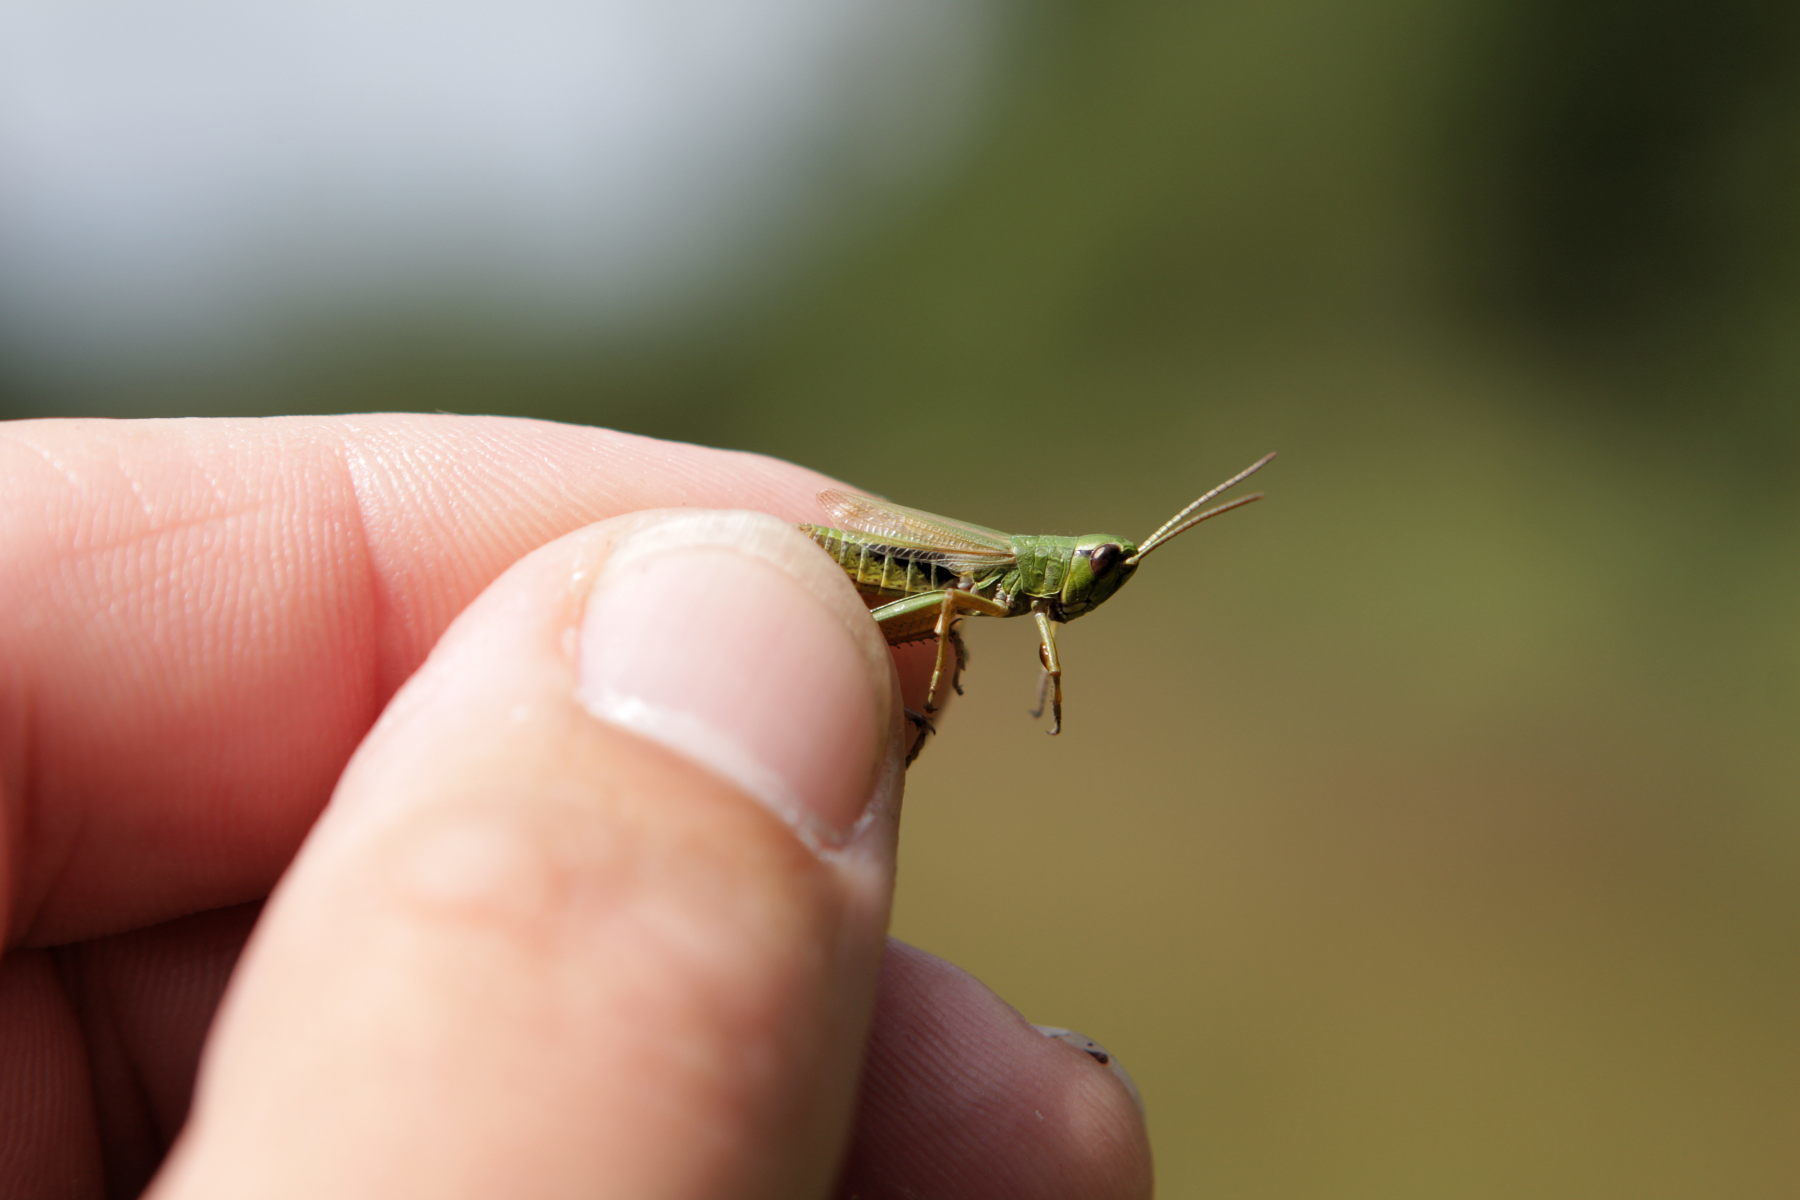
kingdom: Animalia
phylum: Arthropoda
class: Insecta
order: Orthoptera
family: Acrididae
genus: Pseudochorthippus
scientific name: Pseudochorthippus parallelus
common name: Meadow grasshopper
